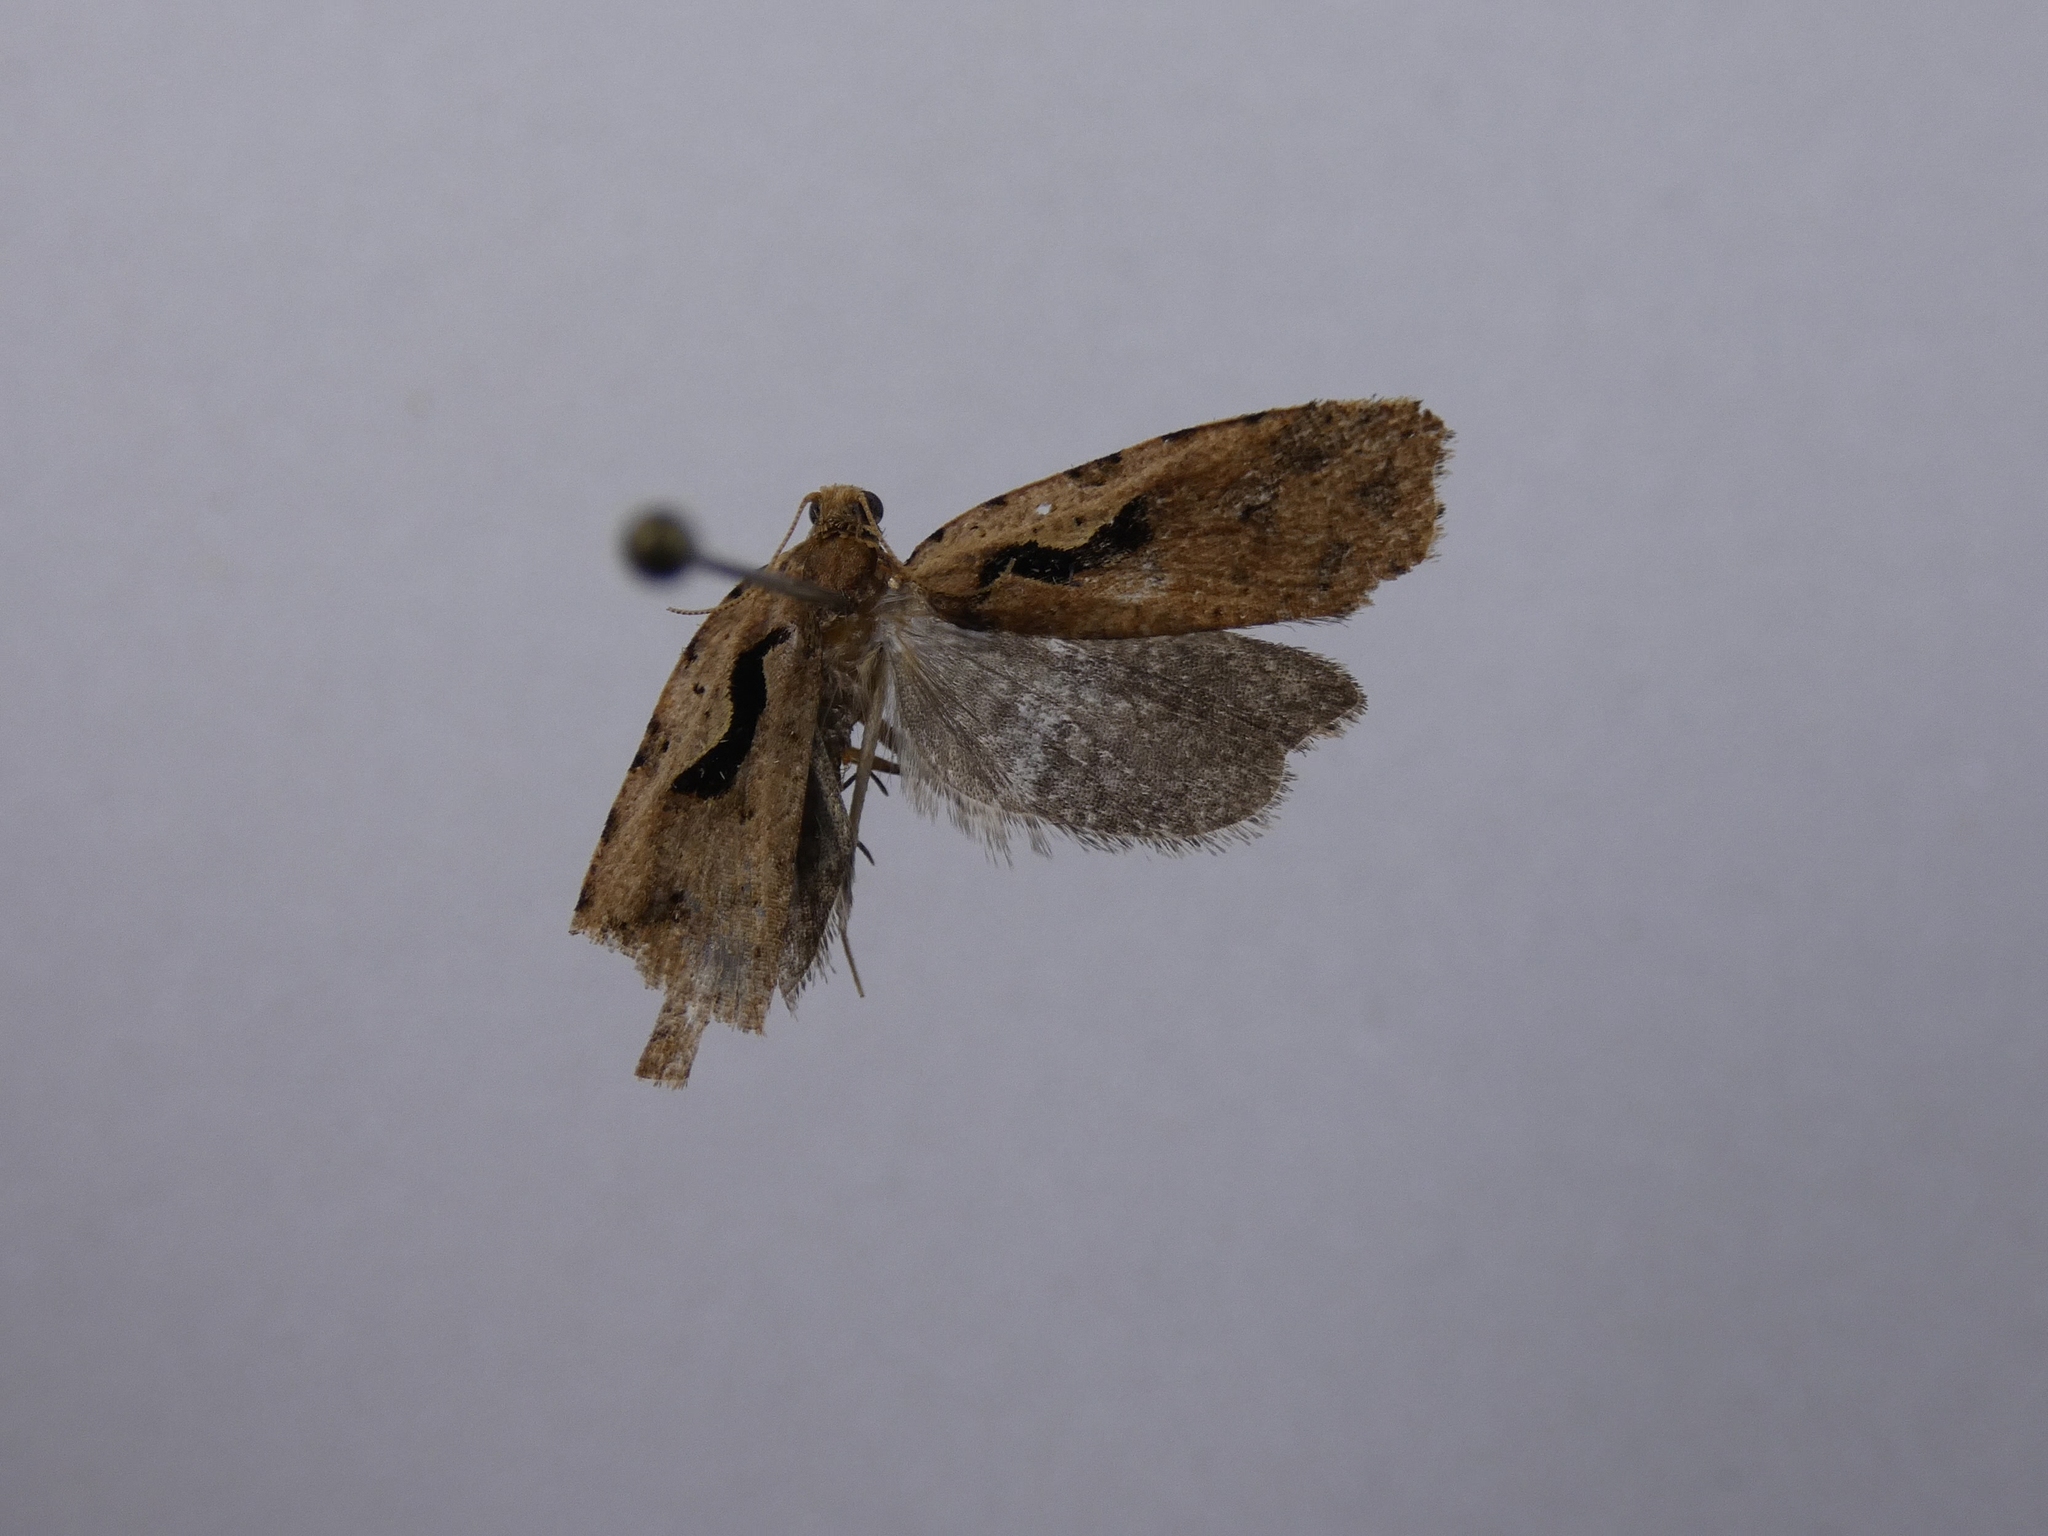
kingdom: Animalia
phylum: Arthropoda
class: Insecta
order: Lepidoptera
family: Tortricidae
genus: Cnephasia
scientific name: Cnephasia jactatana
